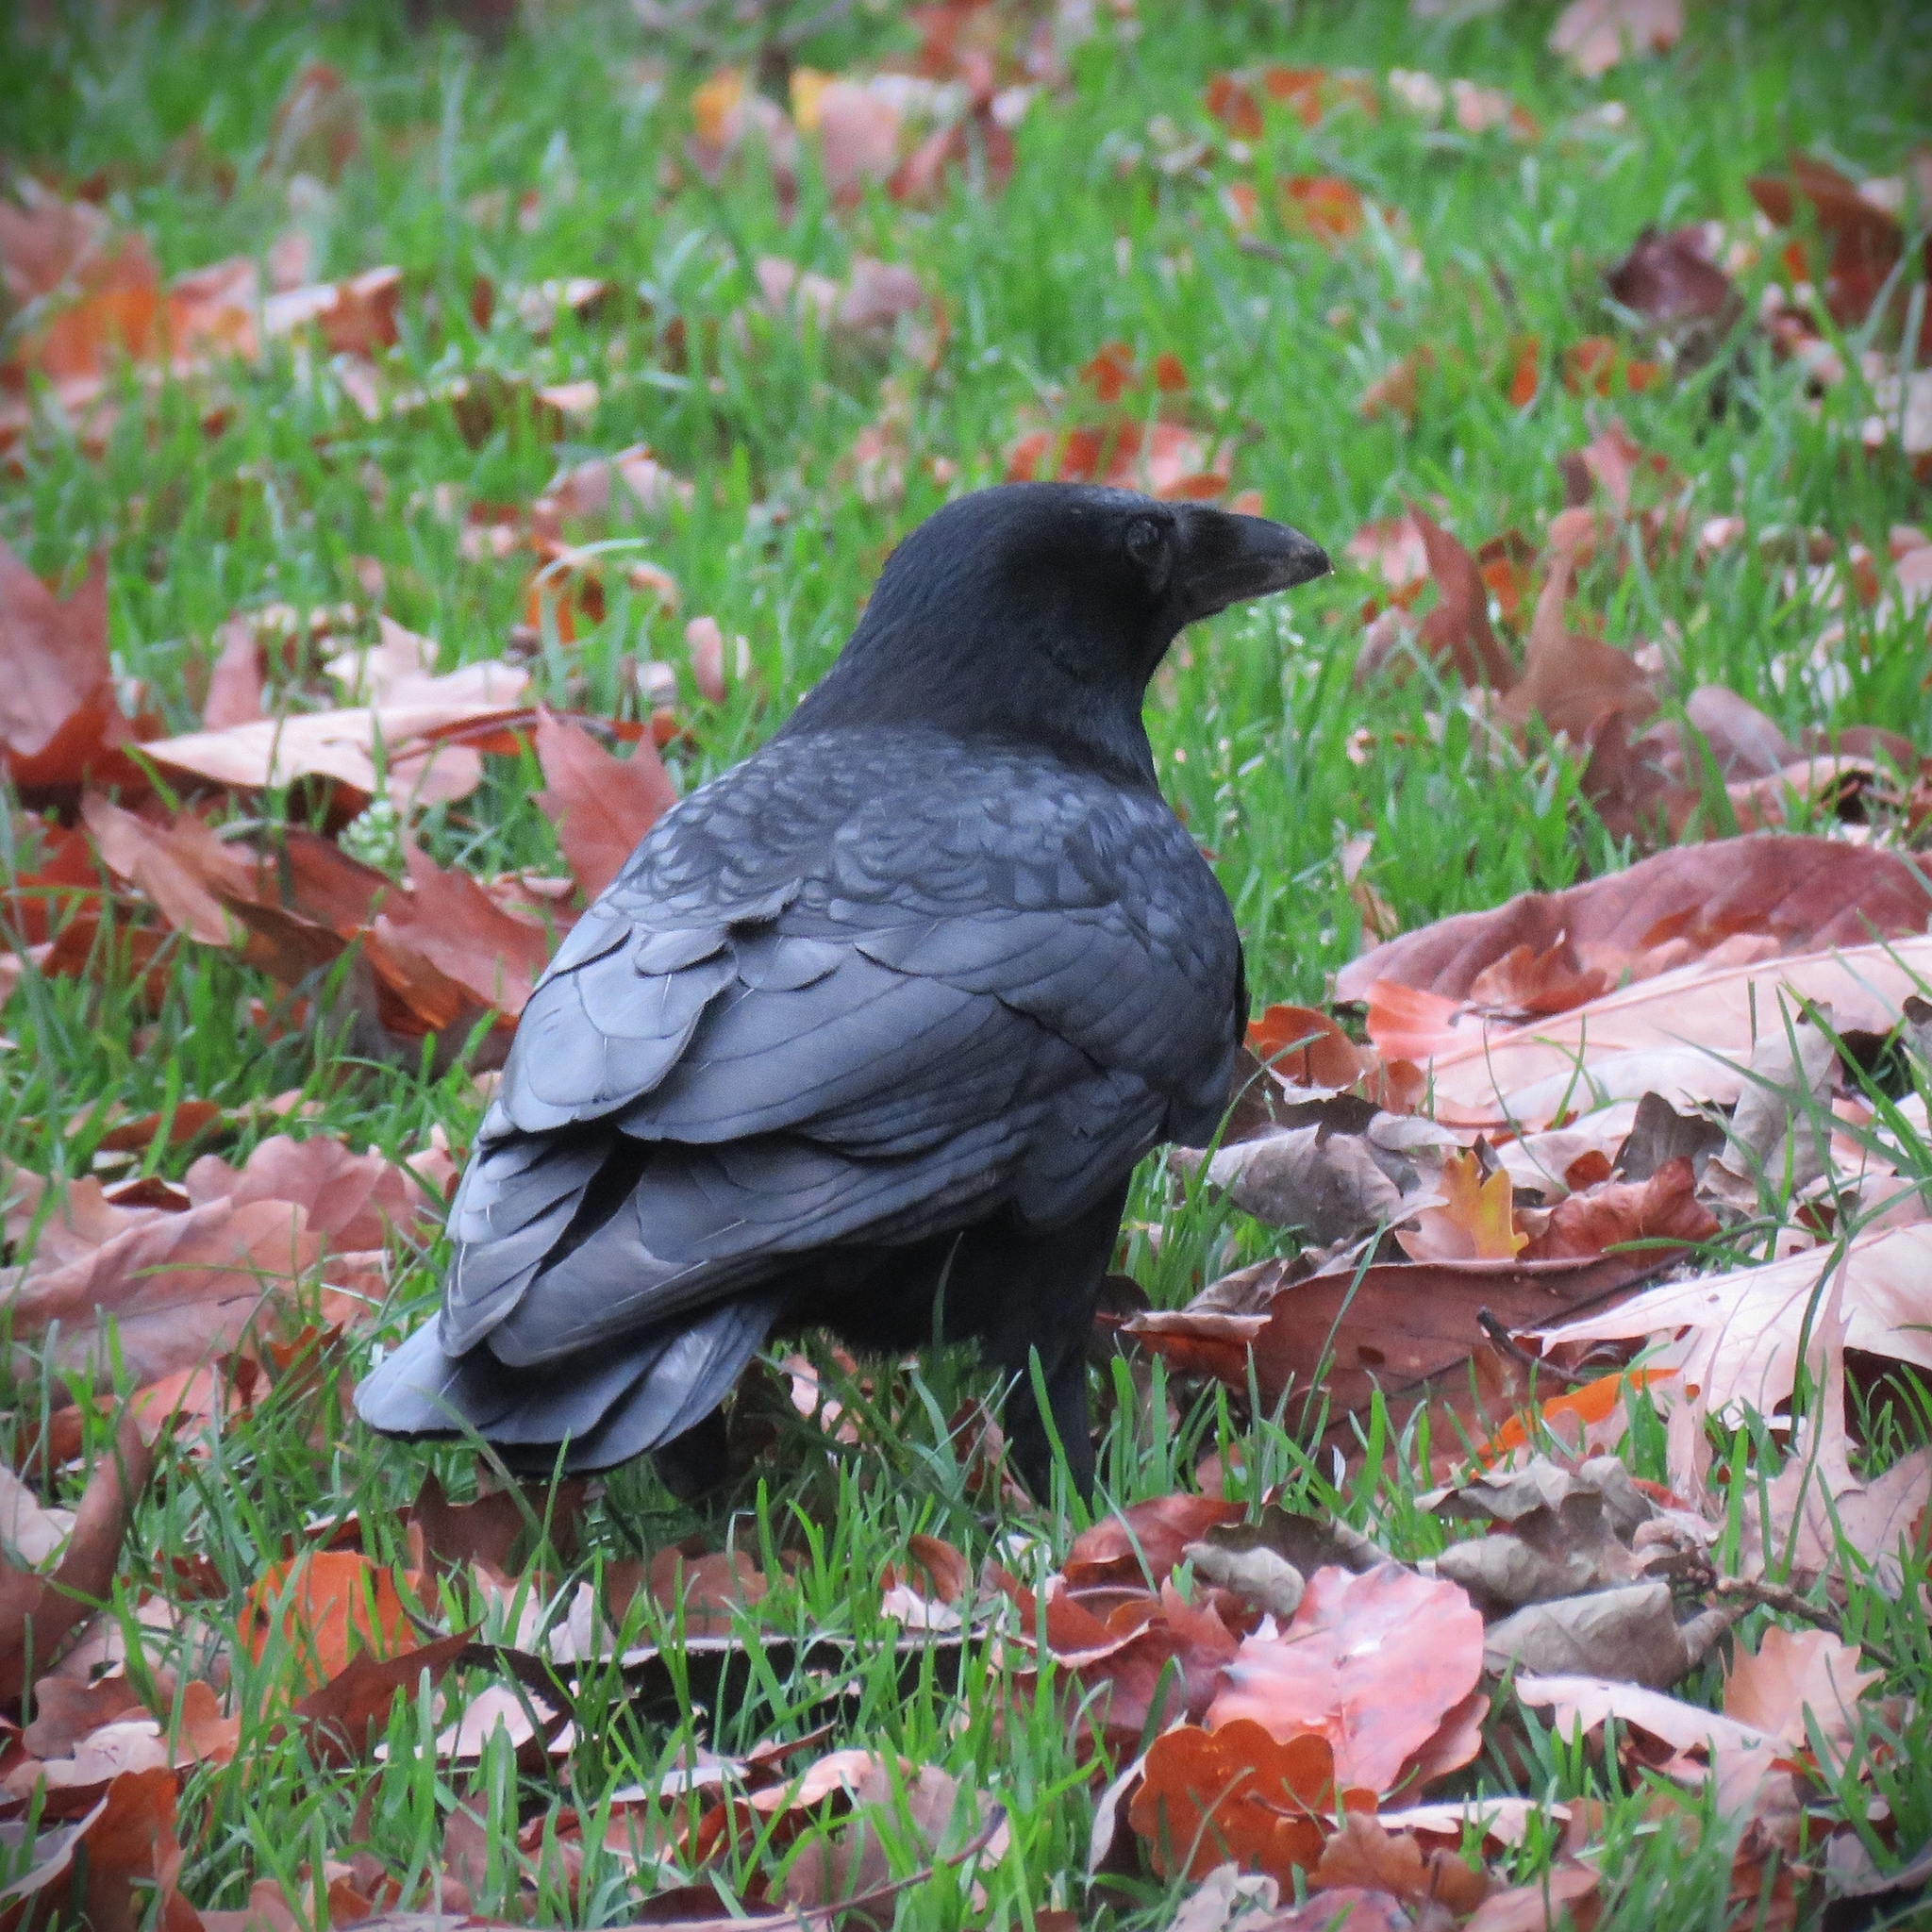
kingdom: Animalia
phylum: Chordata
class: Aves
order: Passeriformes
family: Corvidae
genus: Corvus
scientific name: Corvus corone
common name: Carrion crow
